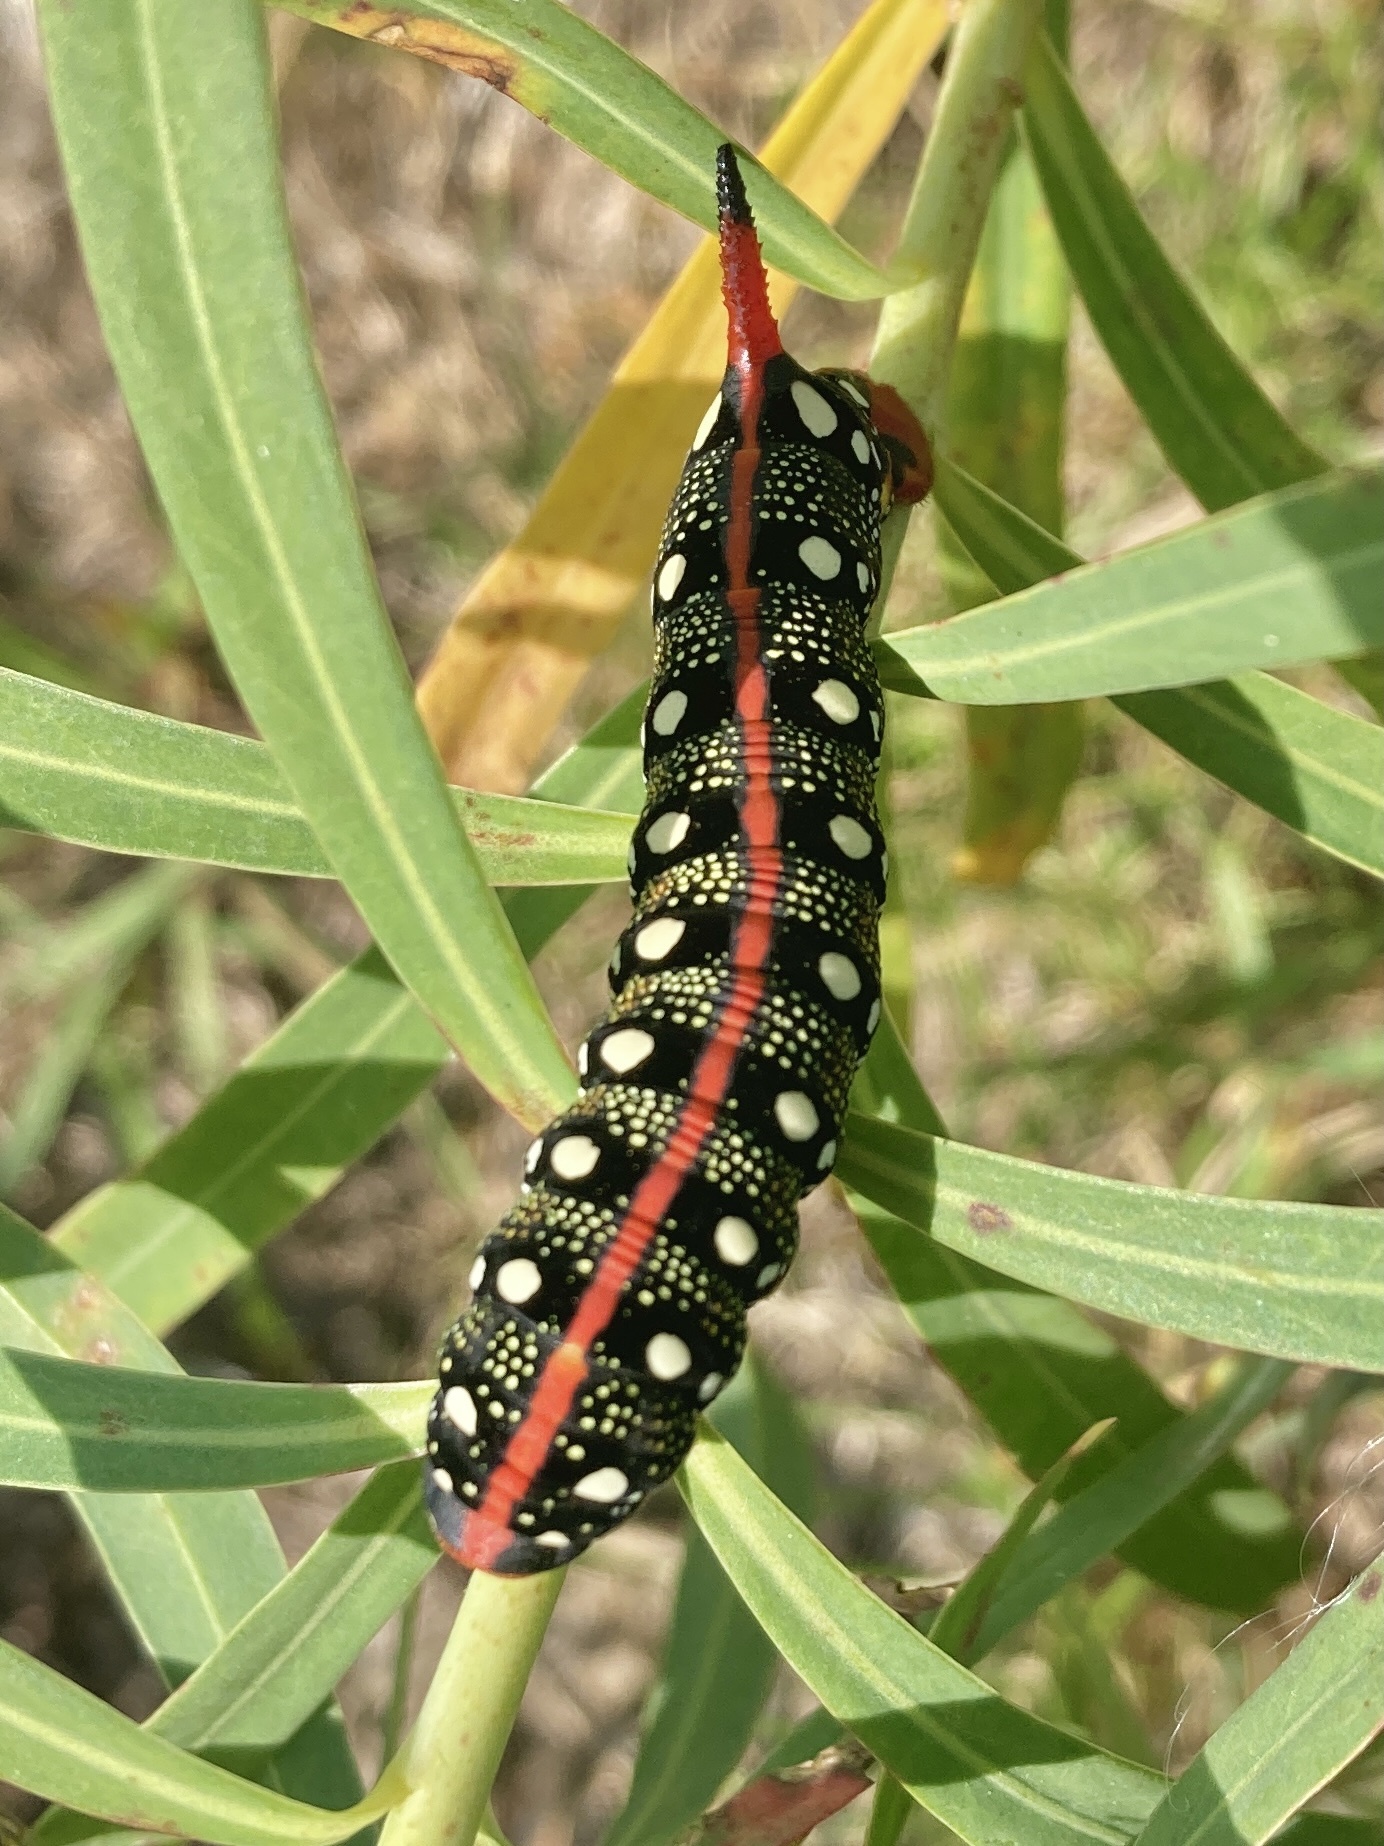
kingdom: Animalia
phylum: Arthropoda
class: Insecta
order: Lepidoptera
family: Sphingidae
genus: Hyles
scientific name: Hyles euphorbiae
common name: Spurge hawk-moth
